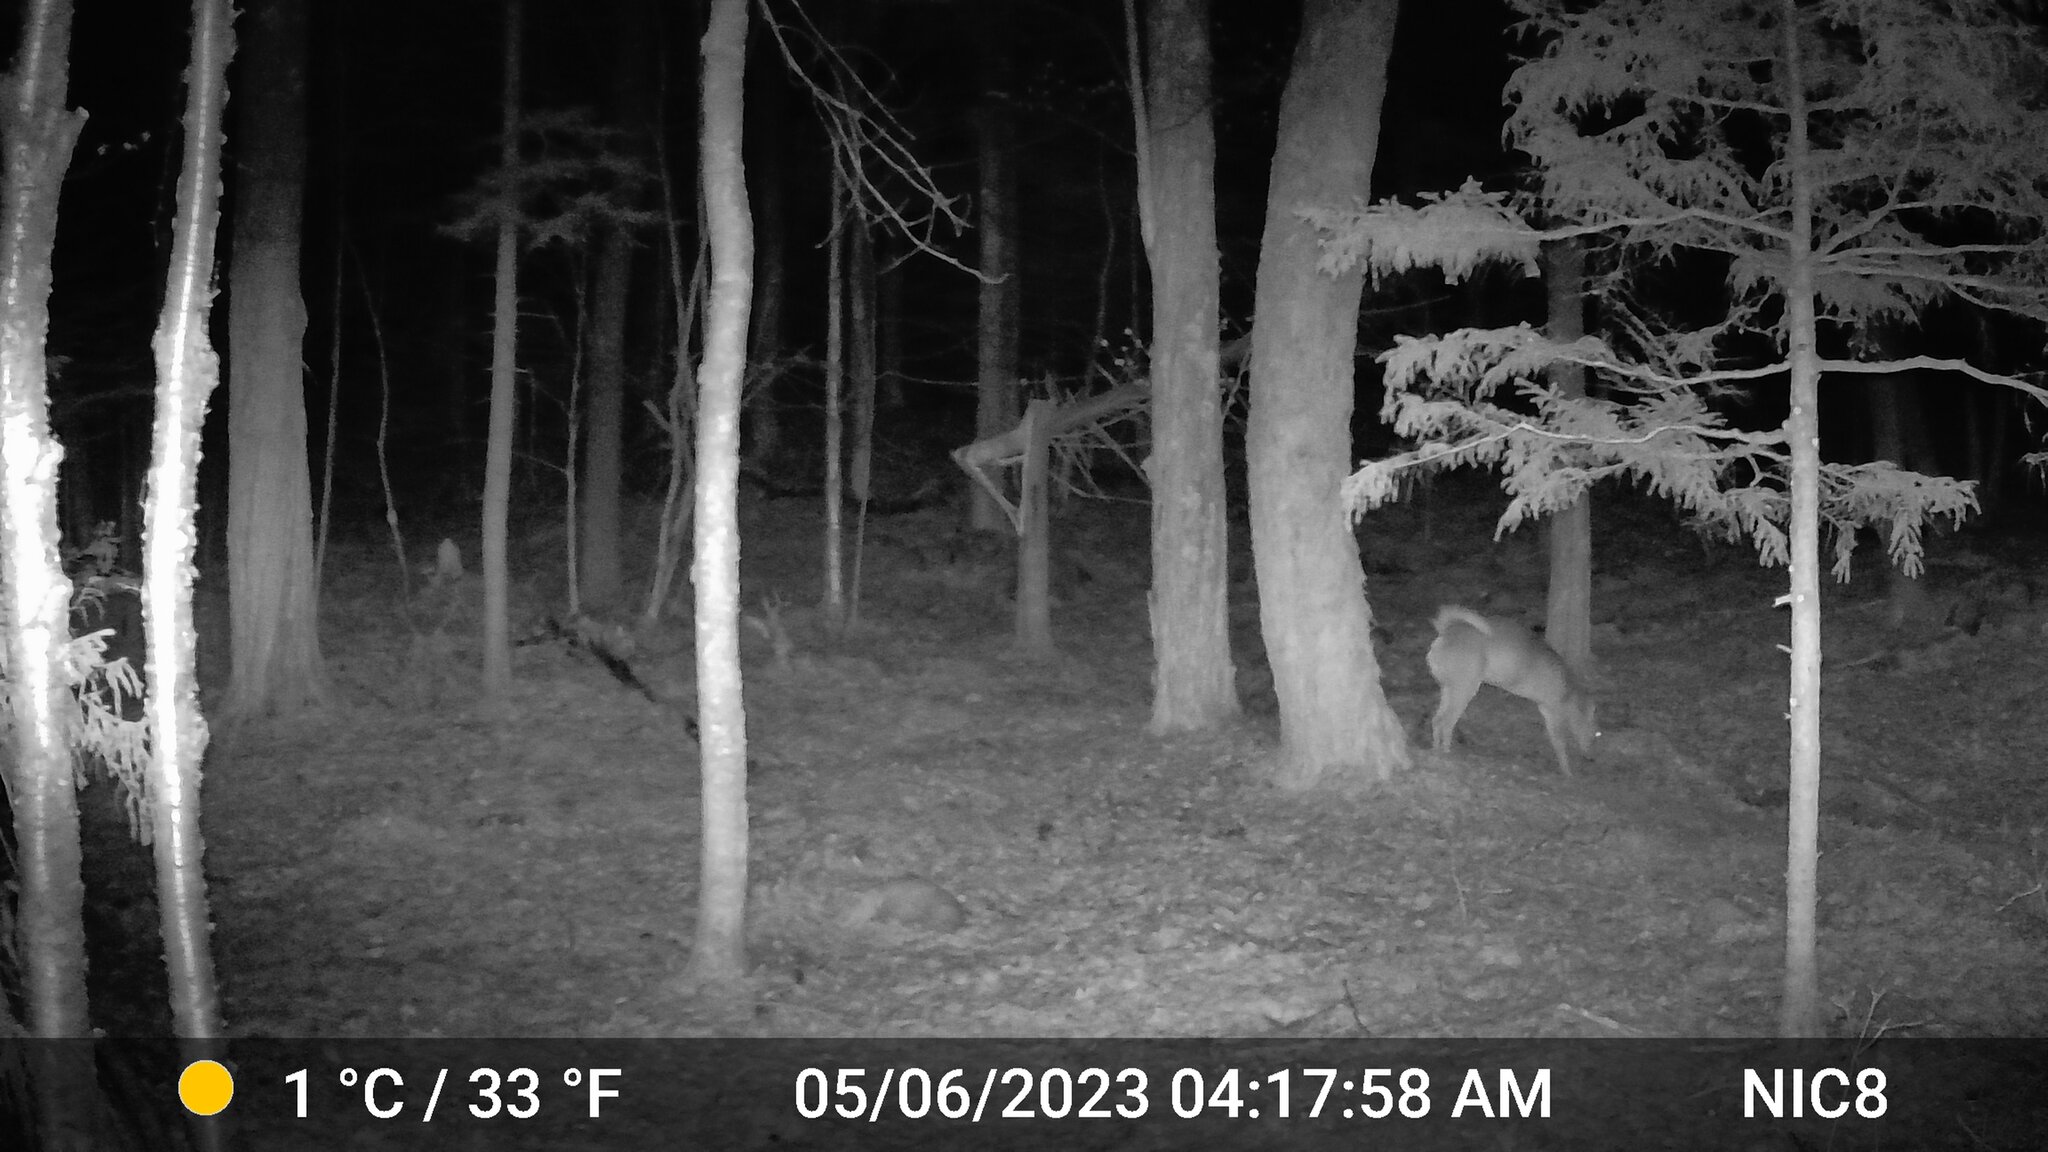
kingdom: Animalia
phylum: Chordata
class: Mammalia
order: Artiodactyla
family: Cervidae
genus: Odocoileus
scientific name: Odocoileus virginianus
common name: White-tailed deer
